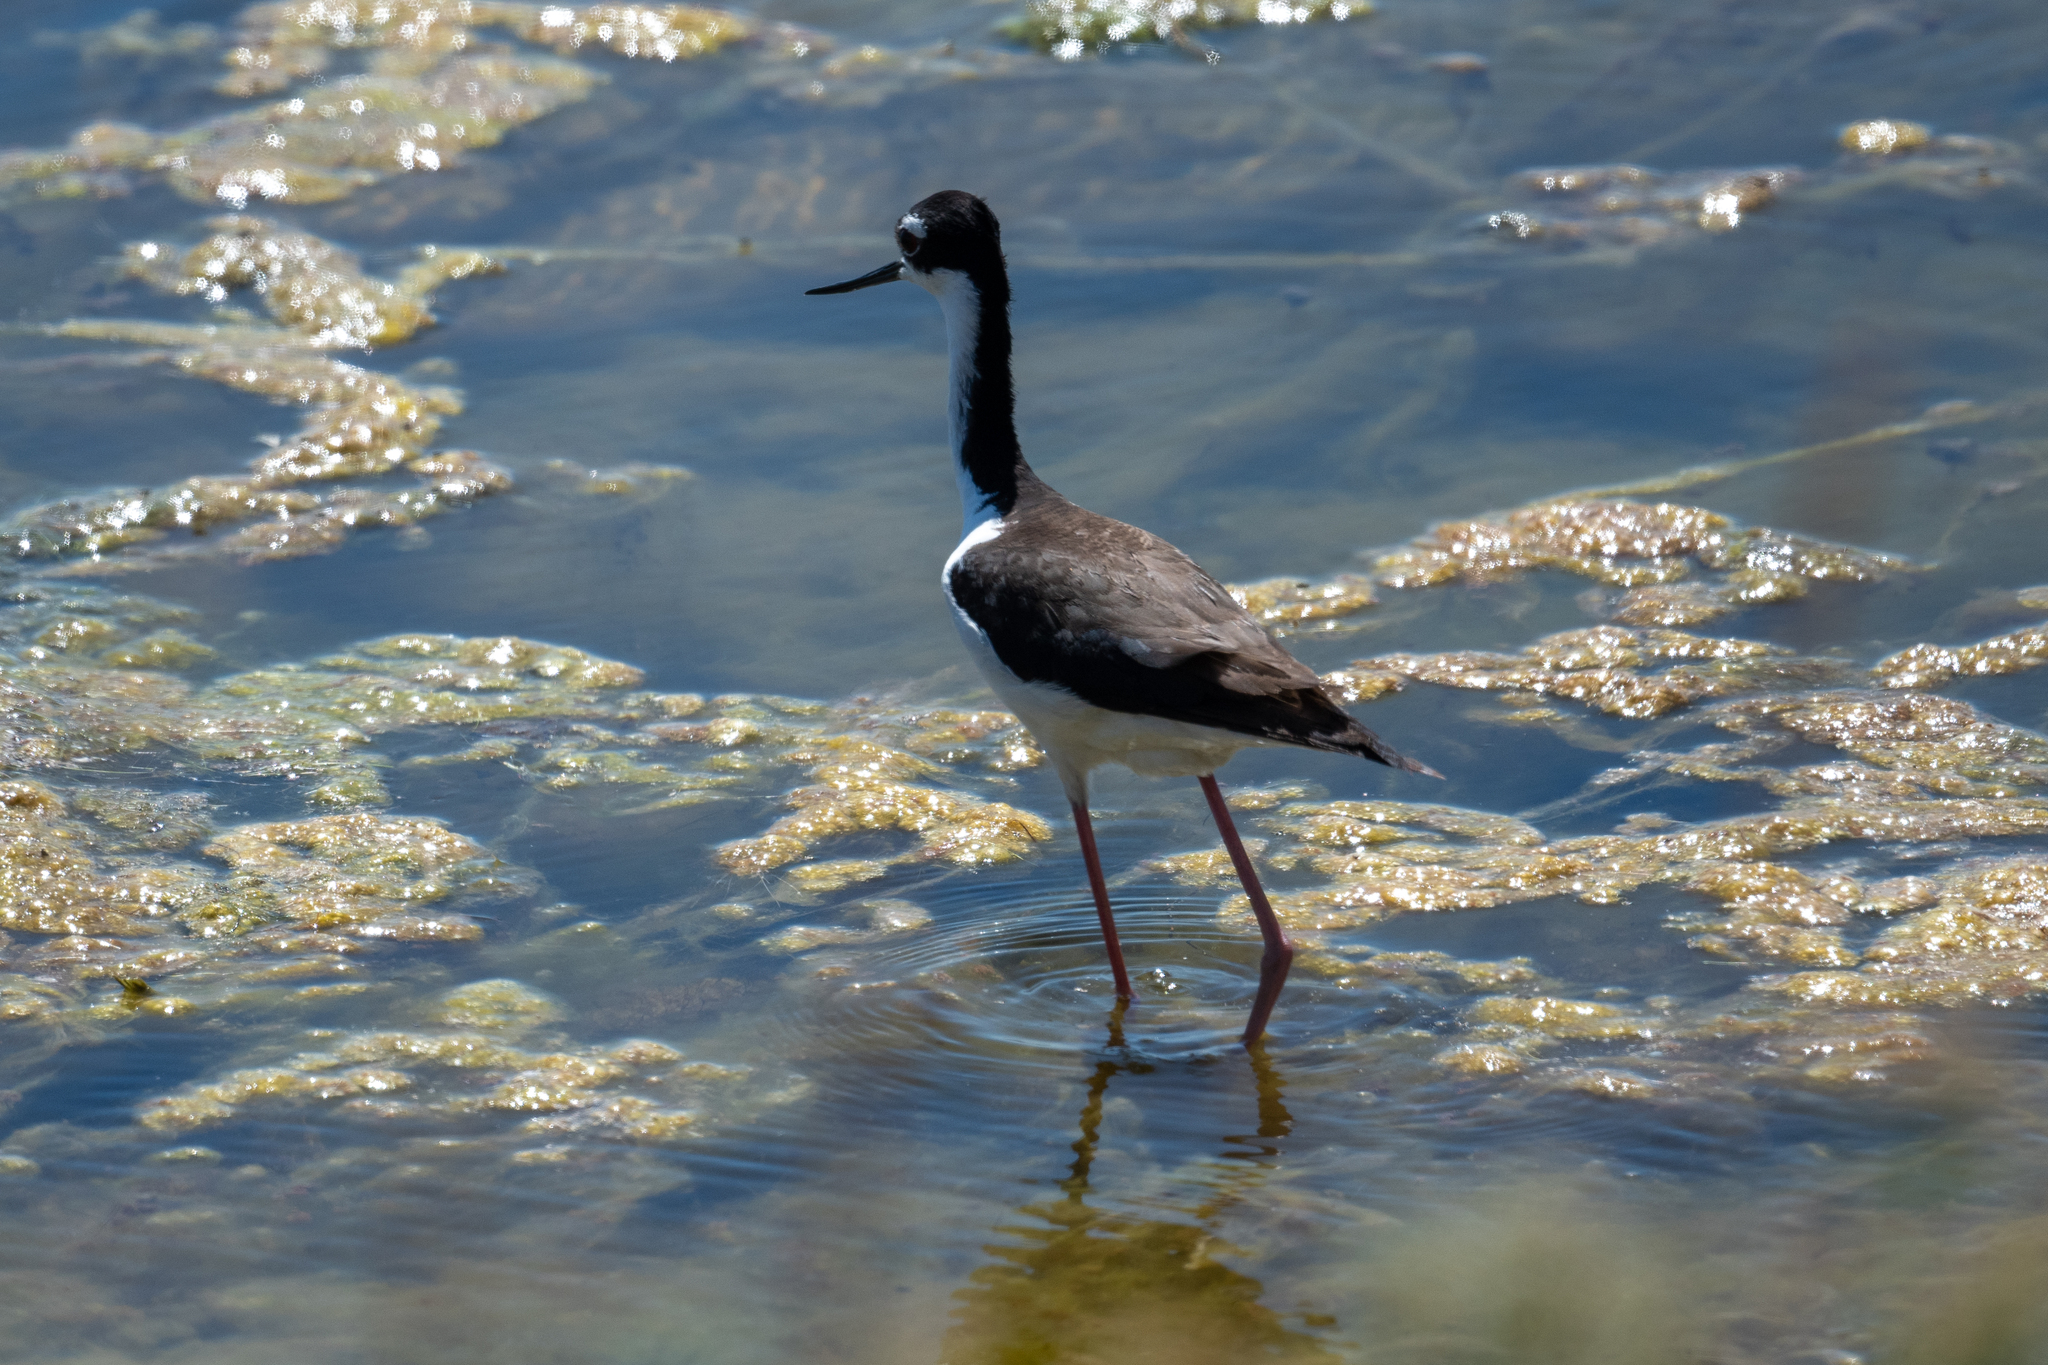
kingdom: Animalia
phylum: Chordata
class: Aves
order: Charadriiformes
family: Recurvirostridae
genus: Himantopus
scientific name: Himantopus mexicanus
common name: Black-necked stilt
